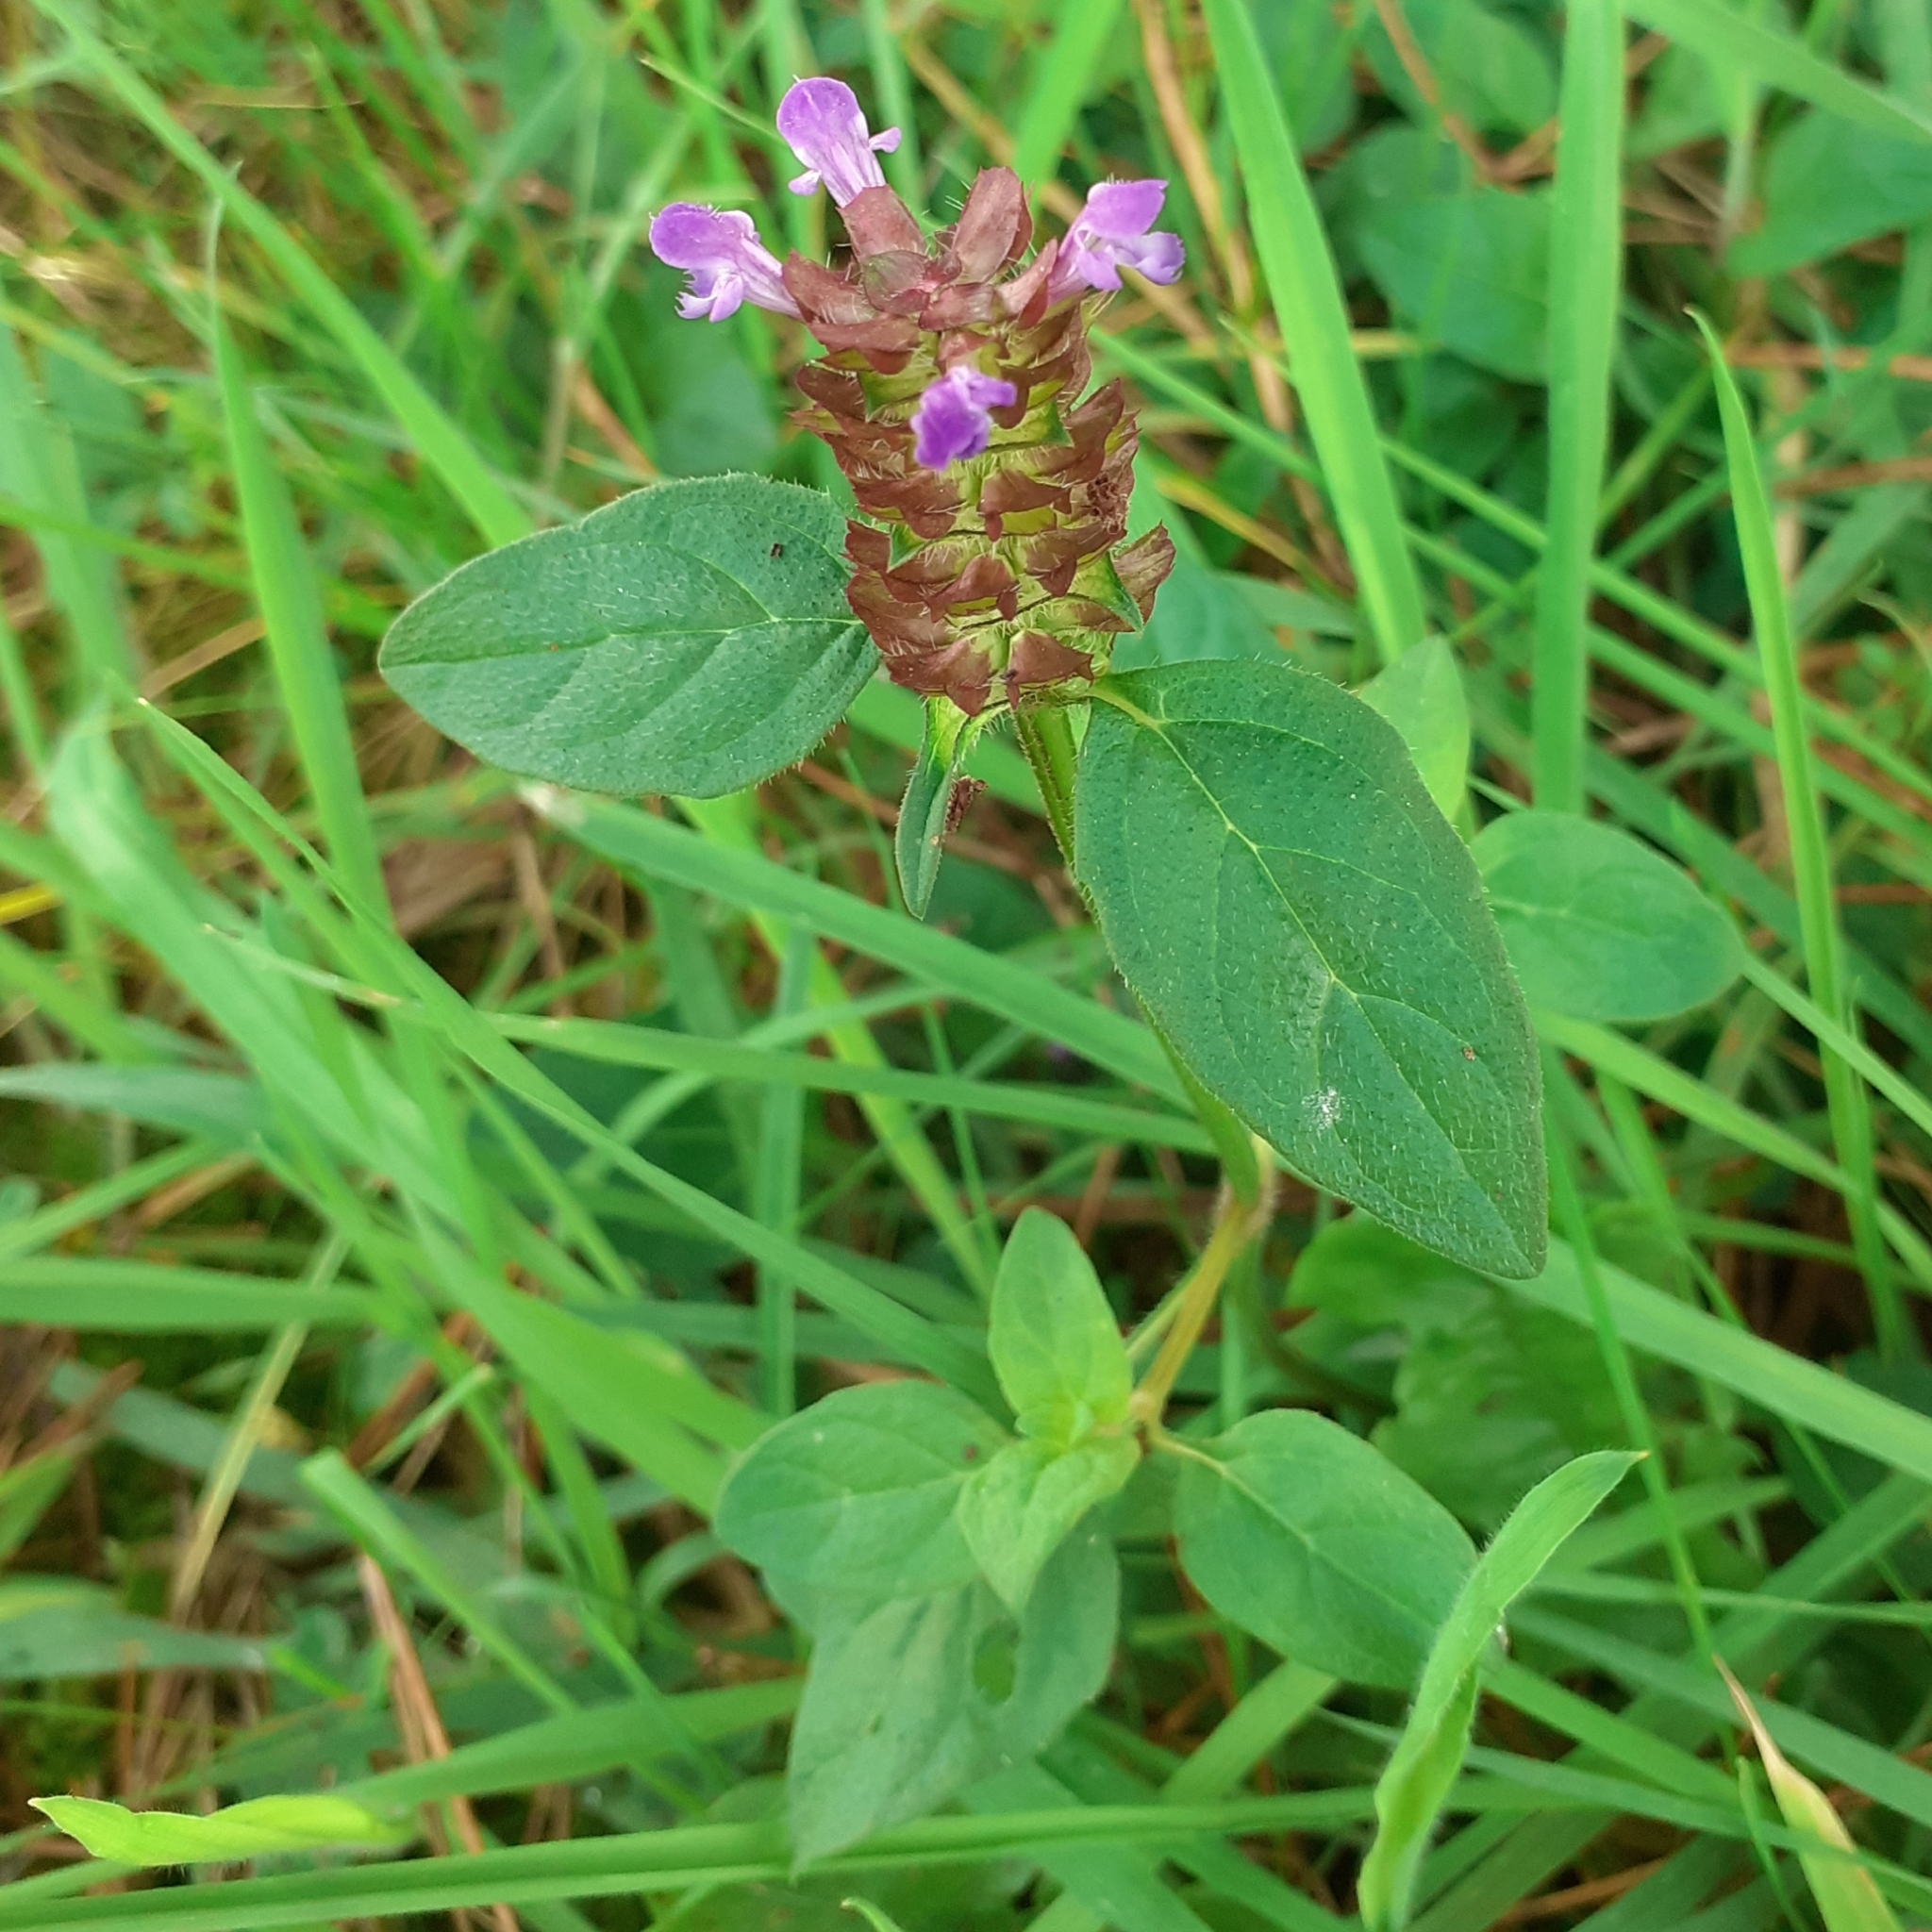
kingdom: Plantae
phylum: Tracheophyta
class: Magnoliopsida
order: Lamiales
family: Lamiaceae
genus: Prunella
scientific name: Prunella vulgaris
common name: Heal-all
